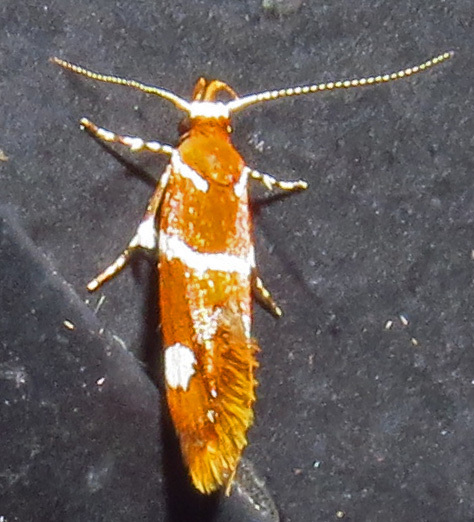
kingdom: Animalia
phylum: Arthropoda
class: Insecta
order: Lepidoptera
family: Oecophoridae
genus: Promalactis
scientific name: Promalactis suzukiella
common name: Moth
